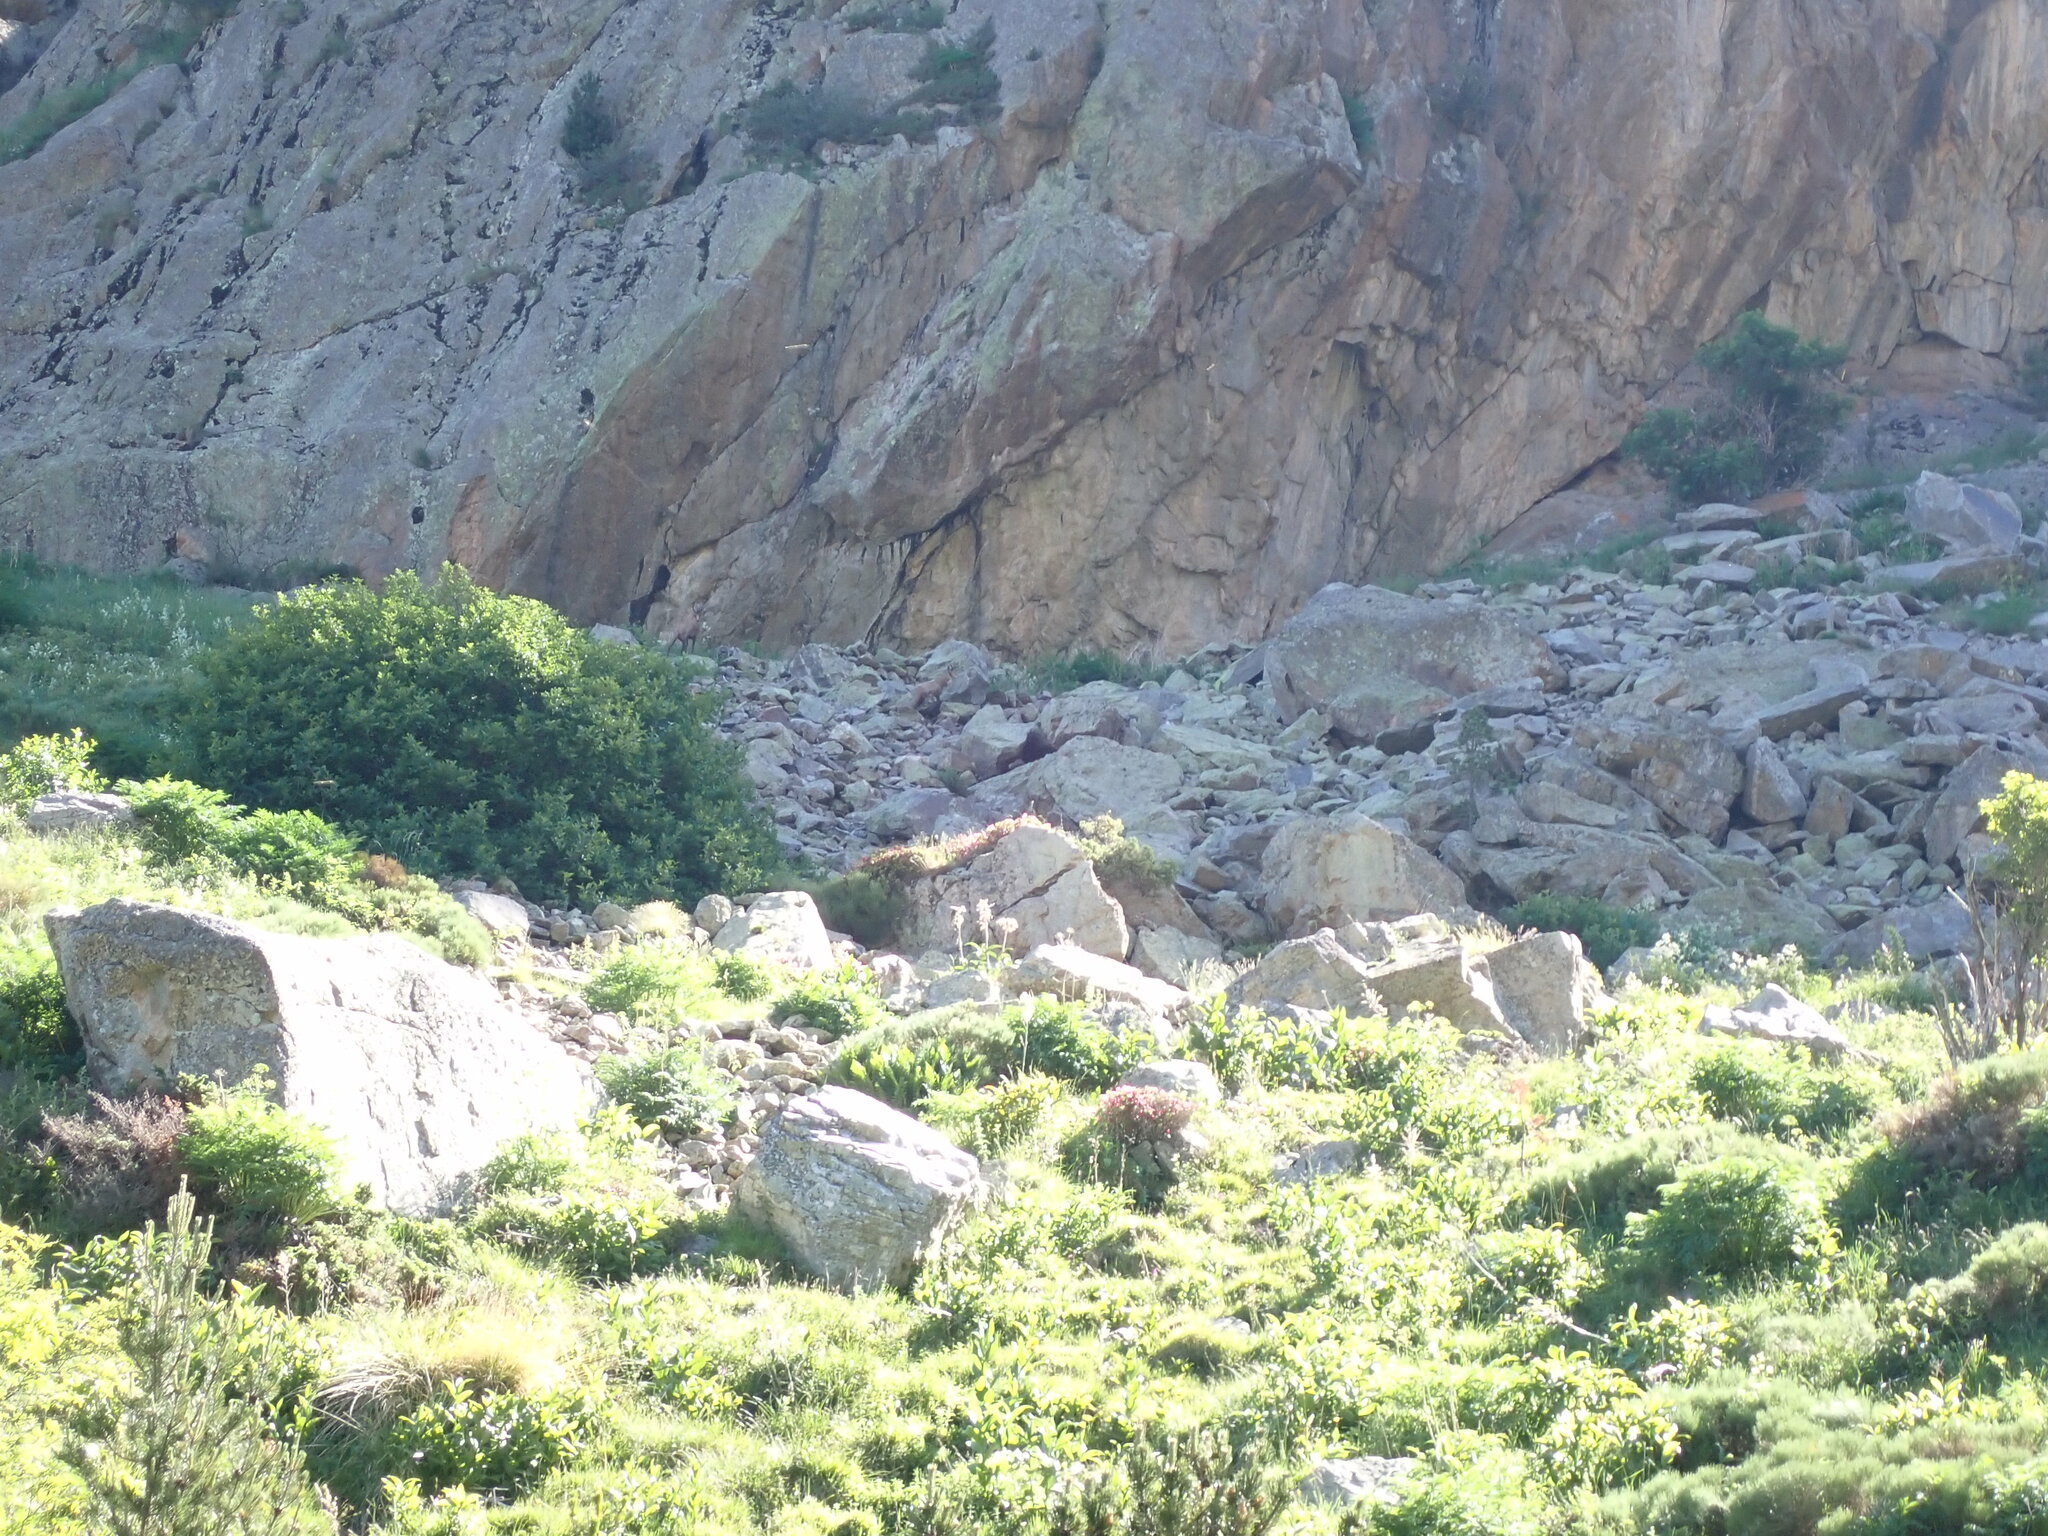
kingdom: Animalia
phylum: Chordata
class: Mammalia
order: Artiodactyla
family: Bovidae
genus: Rupicapra
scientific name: Rupicapra pyrenaica
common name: Pyrenean chamois
